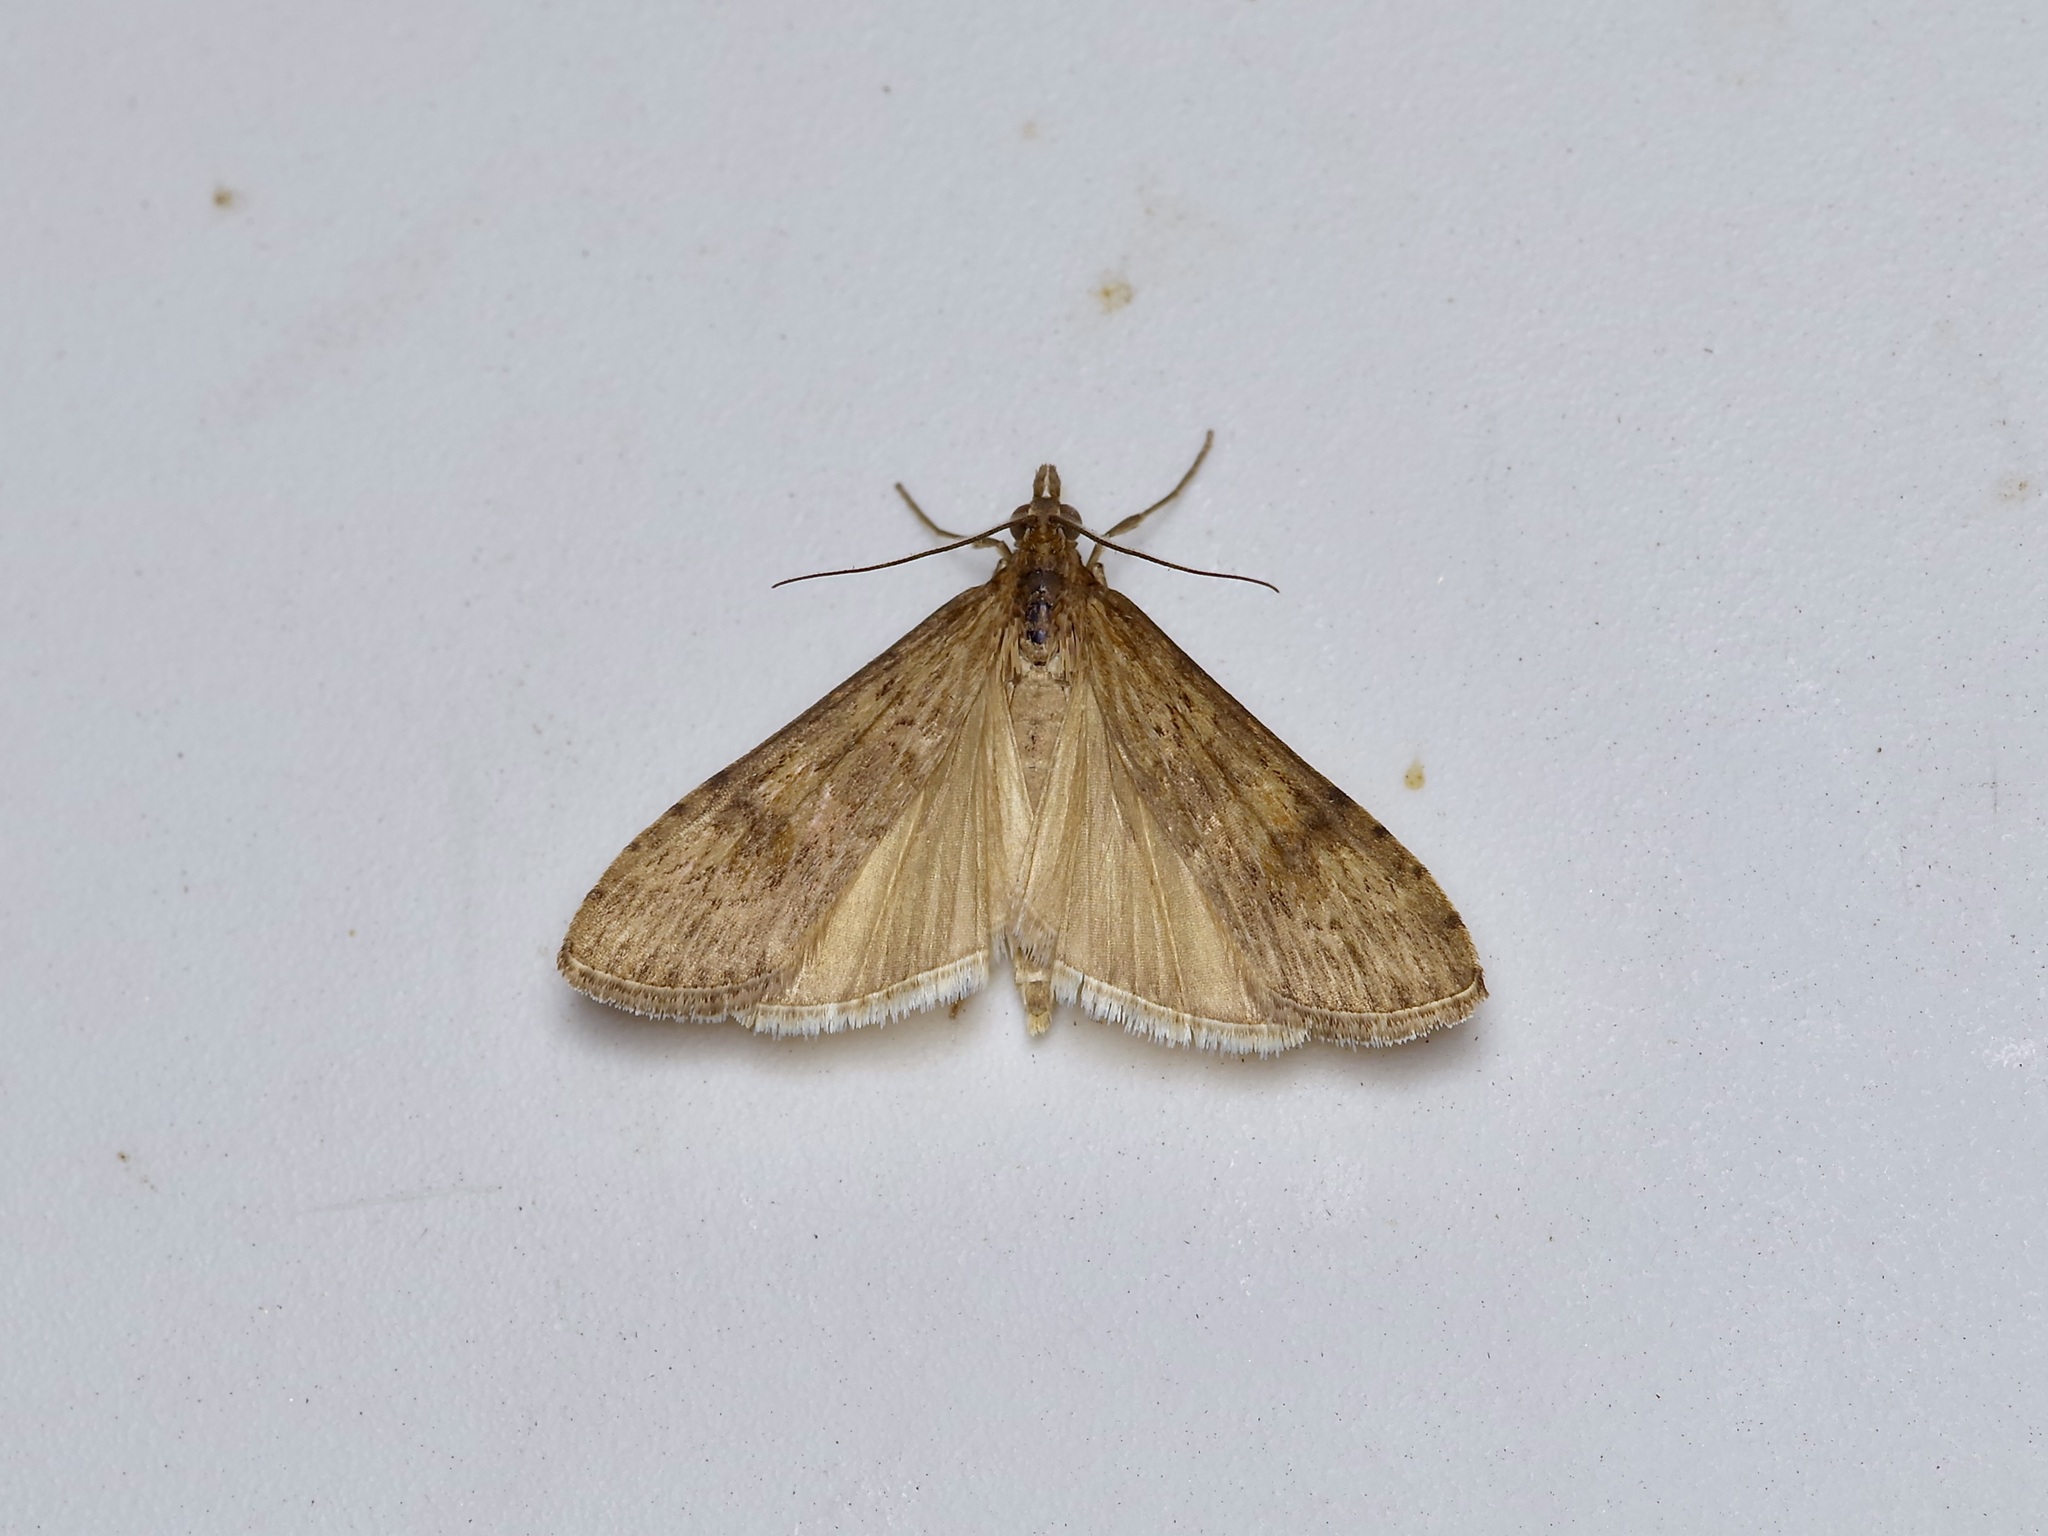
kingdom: Animalia
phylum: Arthropoda
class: Insecta
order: Lepidoptera
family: Crambidae
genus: Nomophila
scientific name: Nomophila nearctica
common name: American rush veneer
